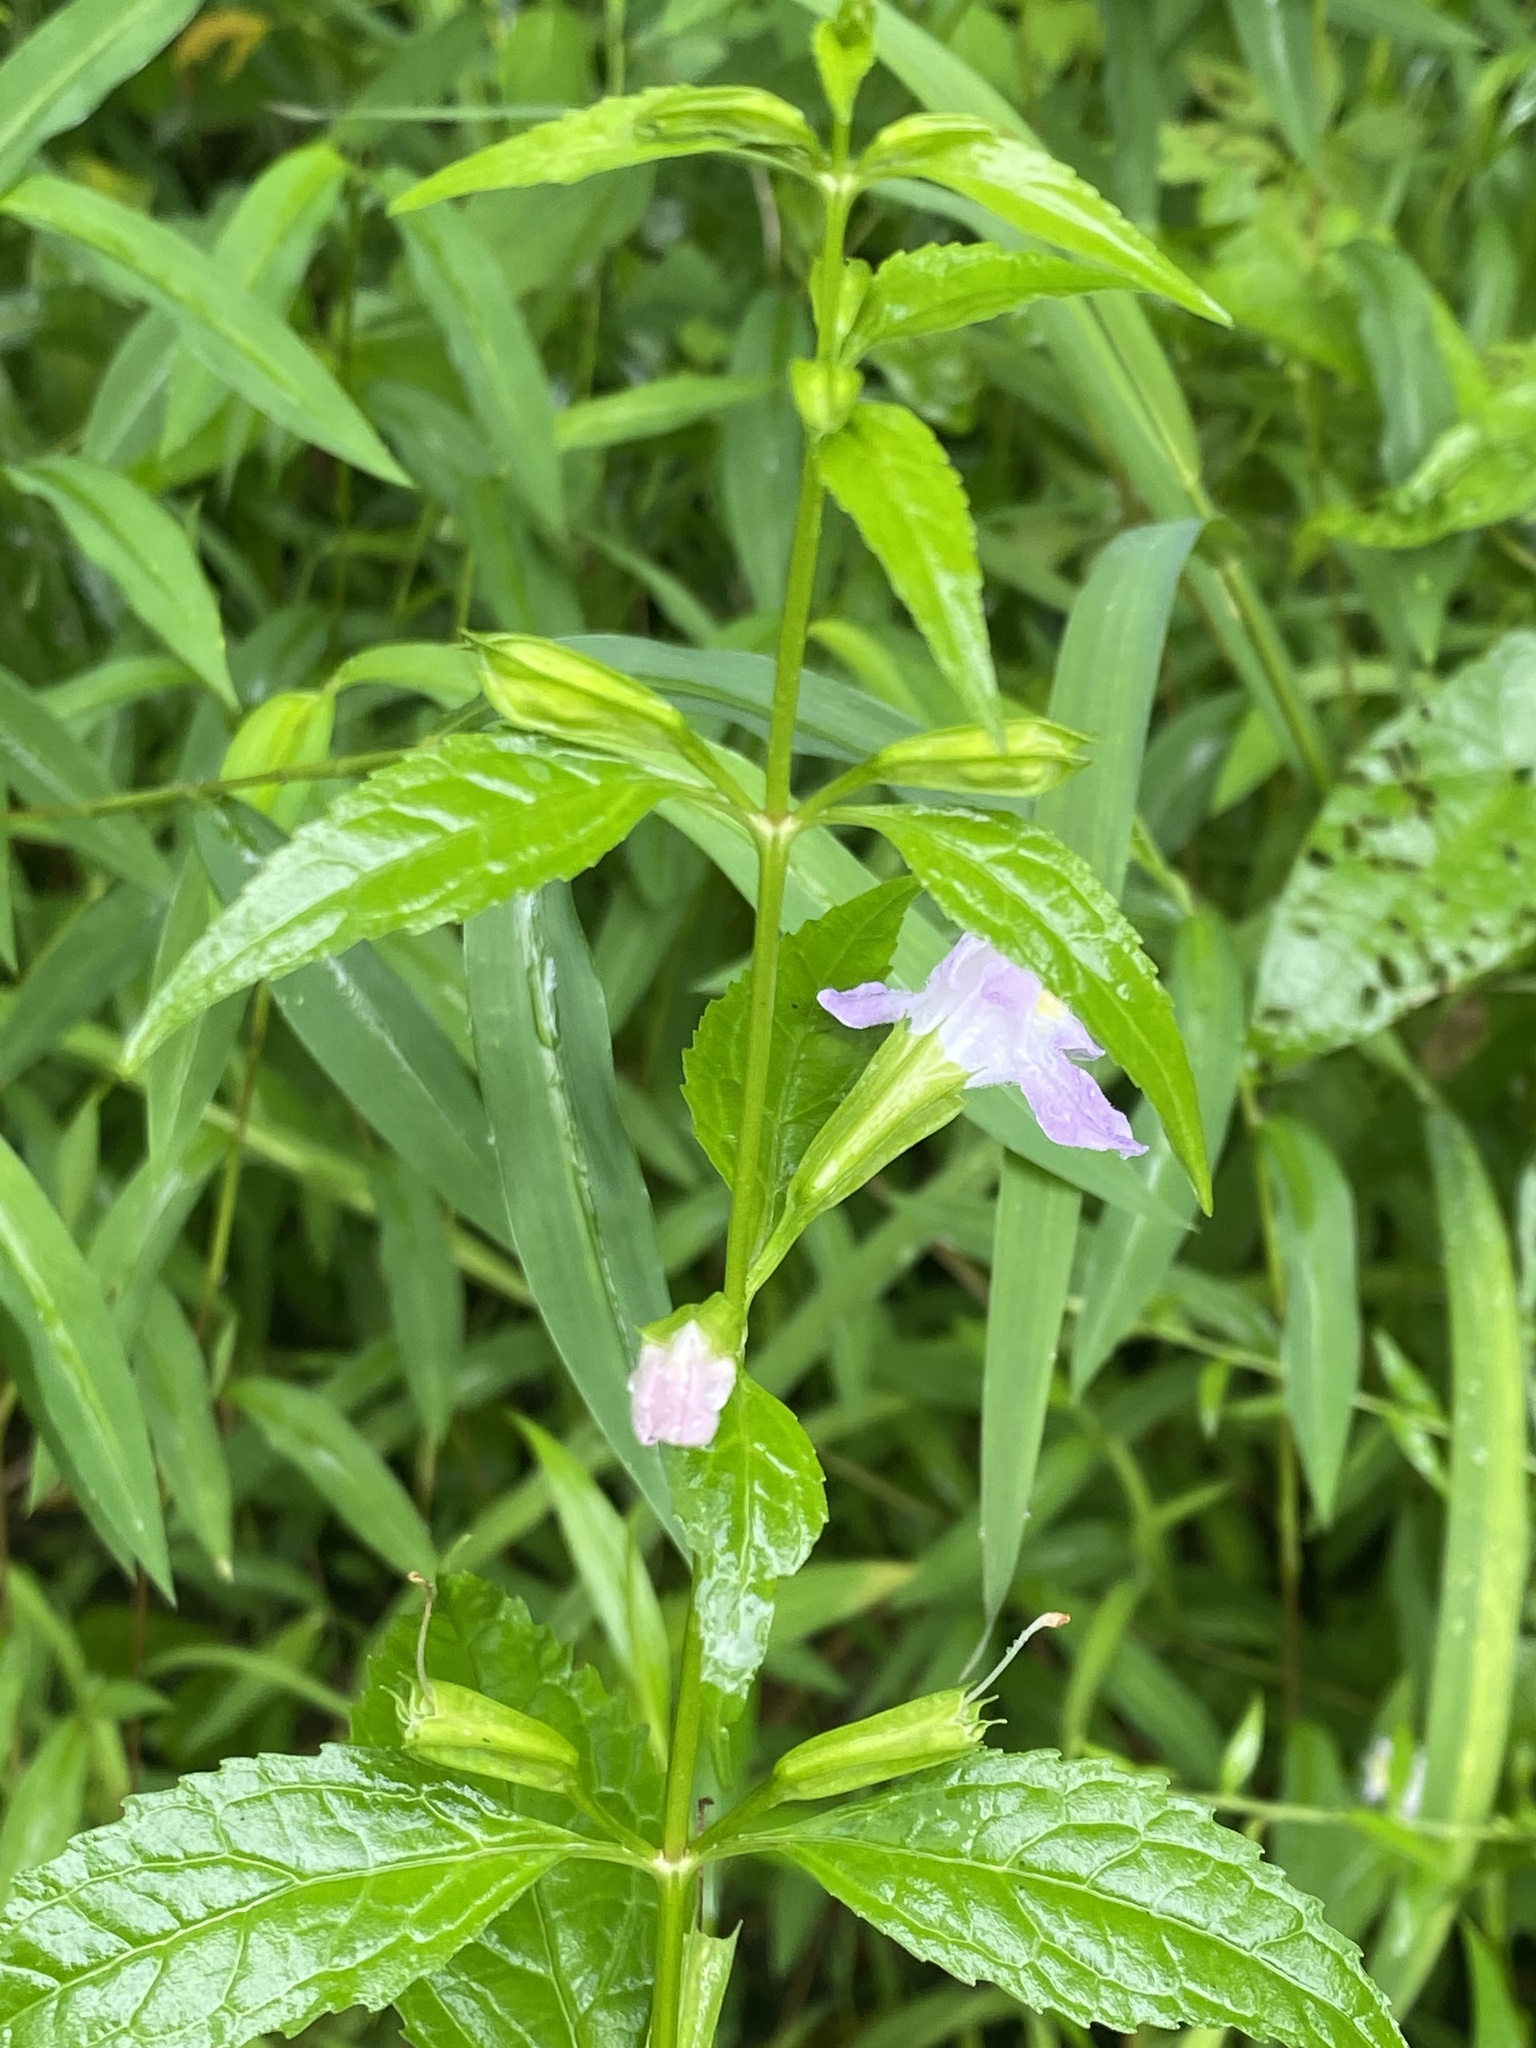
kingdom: Plantae
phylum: Tracheophyta
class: Magnoliopsida
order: Lamiales
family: Phrymaceae
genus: Mimulus
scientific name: Mimulus alatus
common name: Sharp-wing monkey-flower
